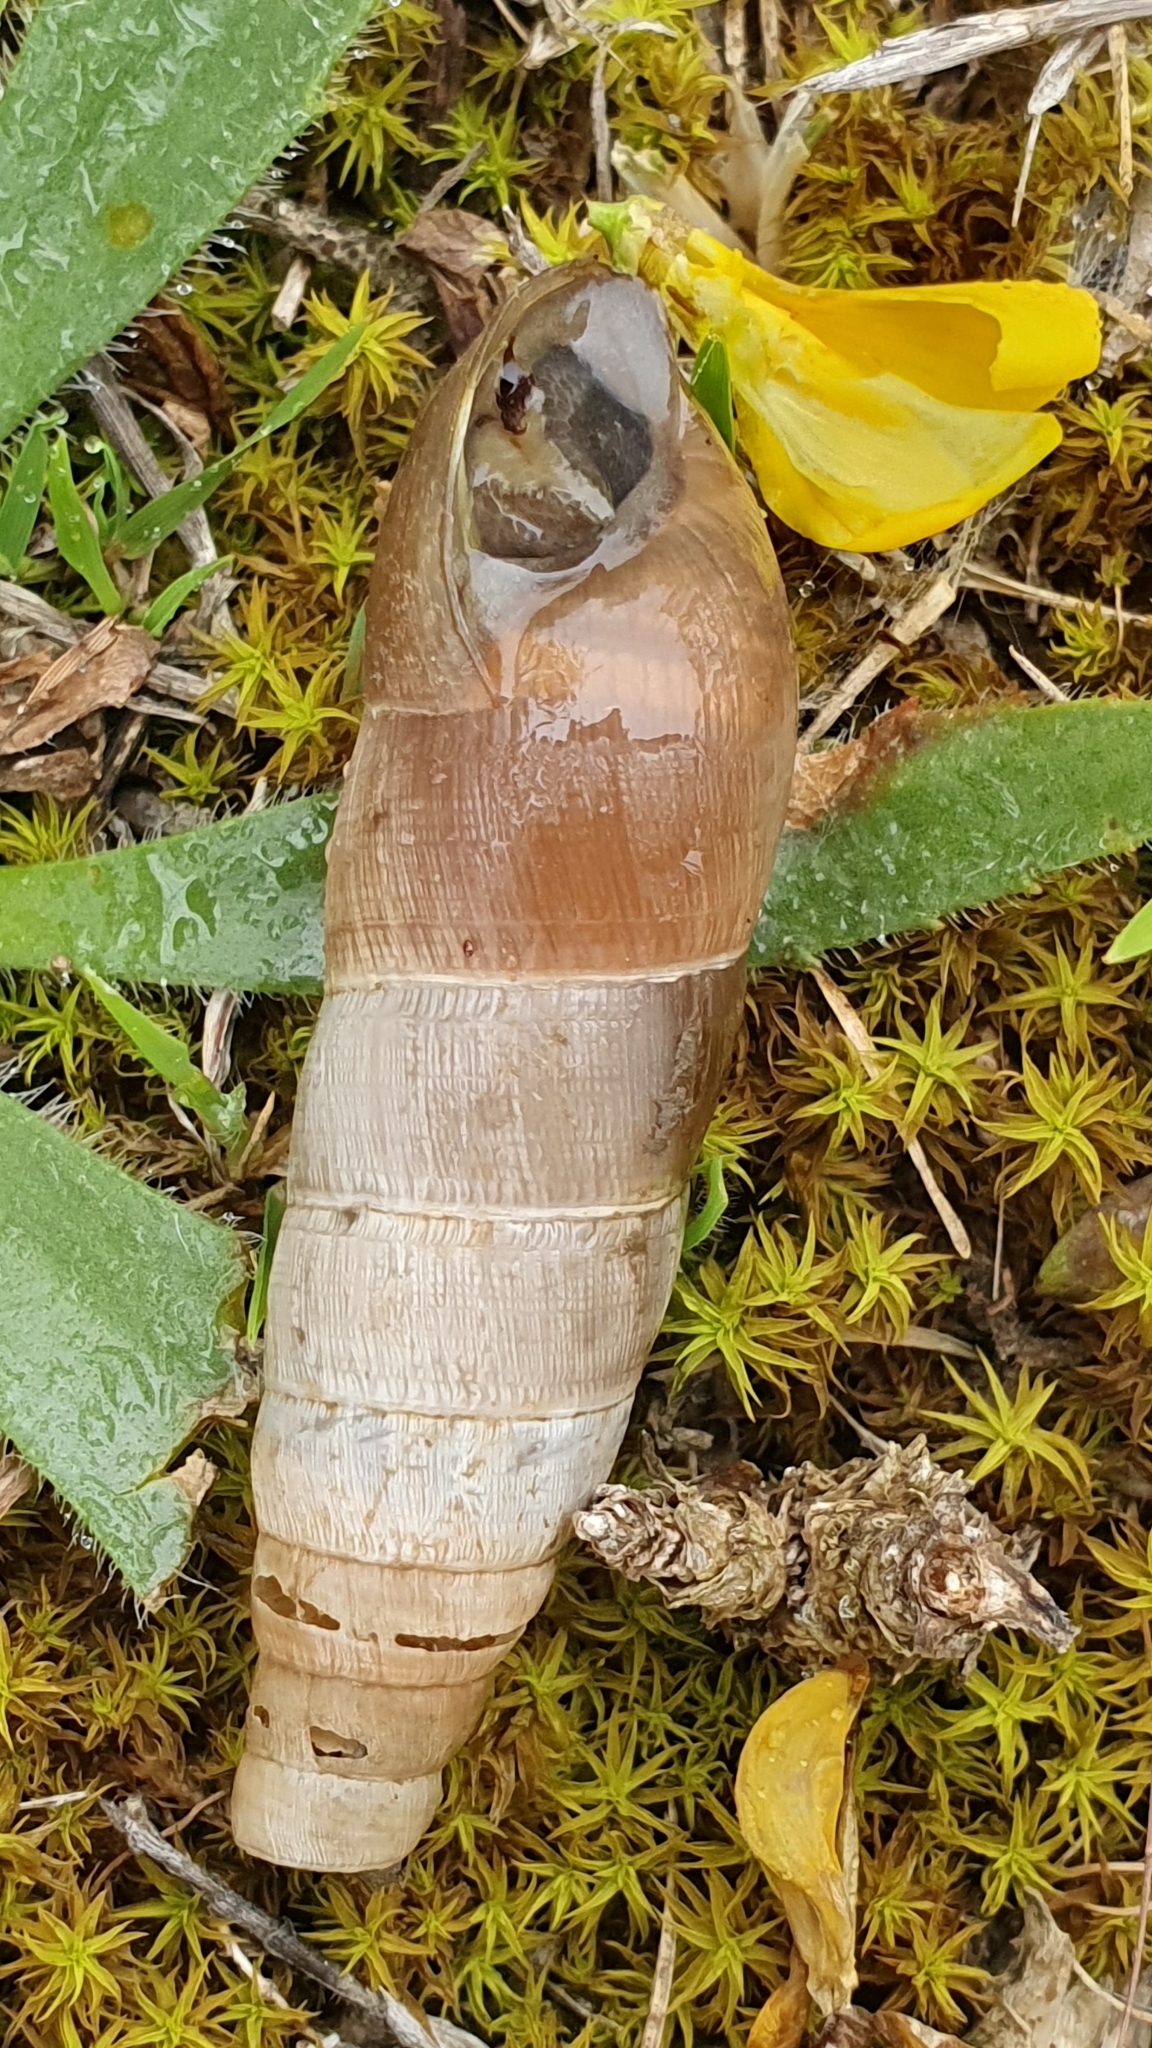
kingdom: Animalia
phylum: Mollusca
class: Gastropoda
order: Stylommatophora
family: Achatinidae
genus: Rumina
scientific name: Rumina decollata
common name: Decollate snail
